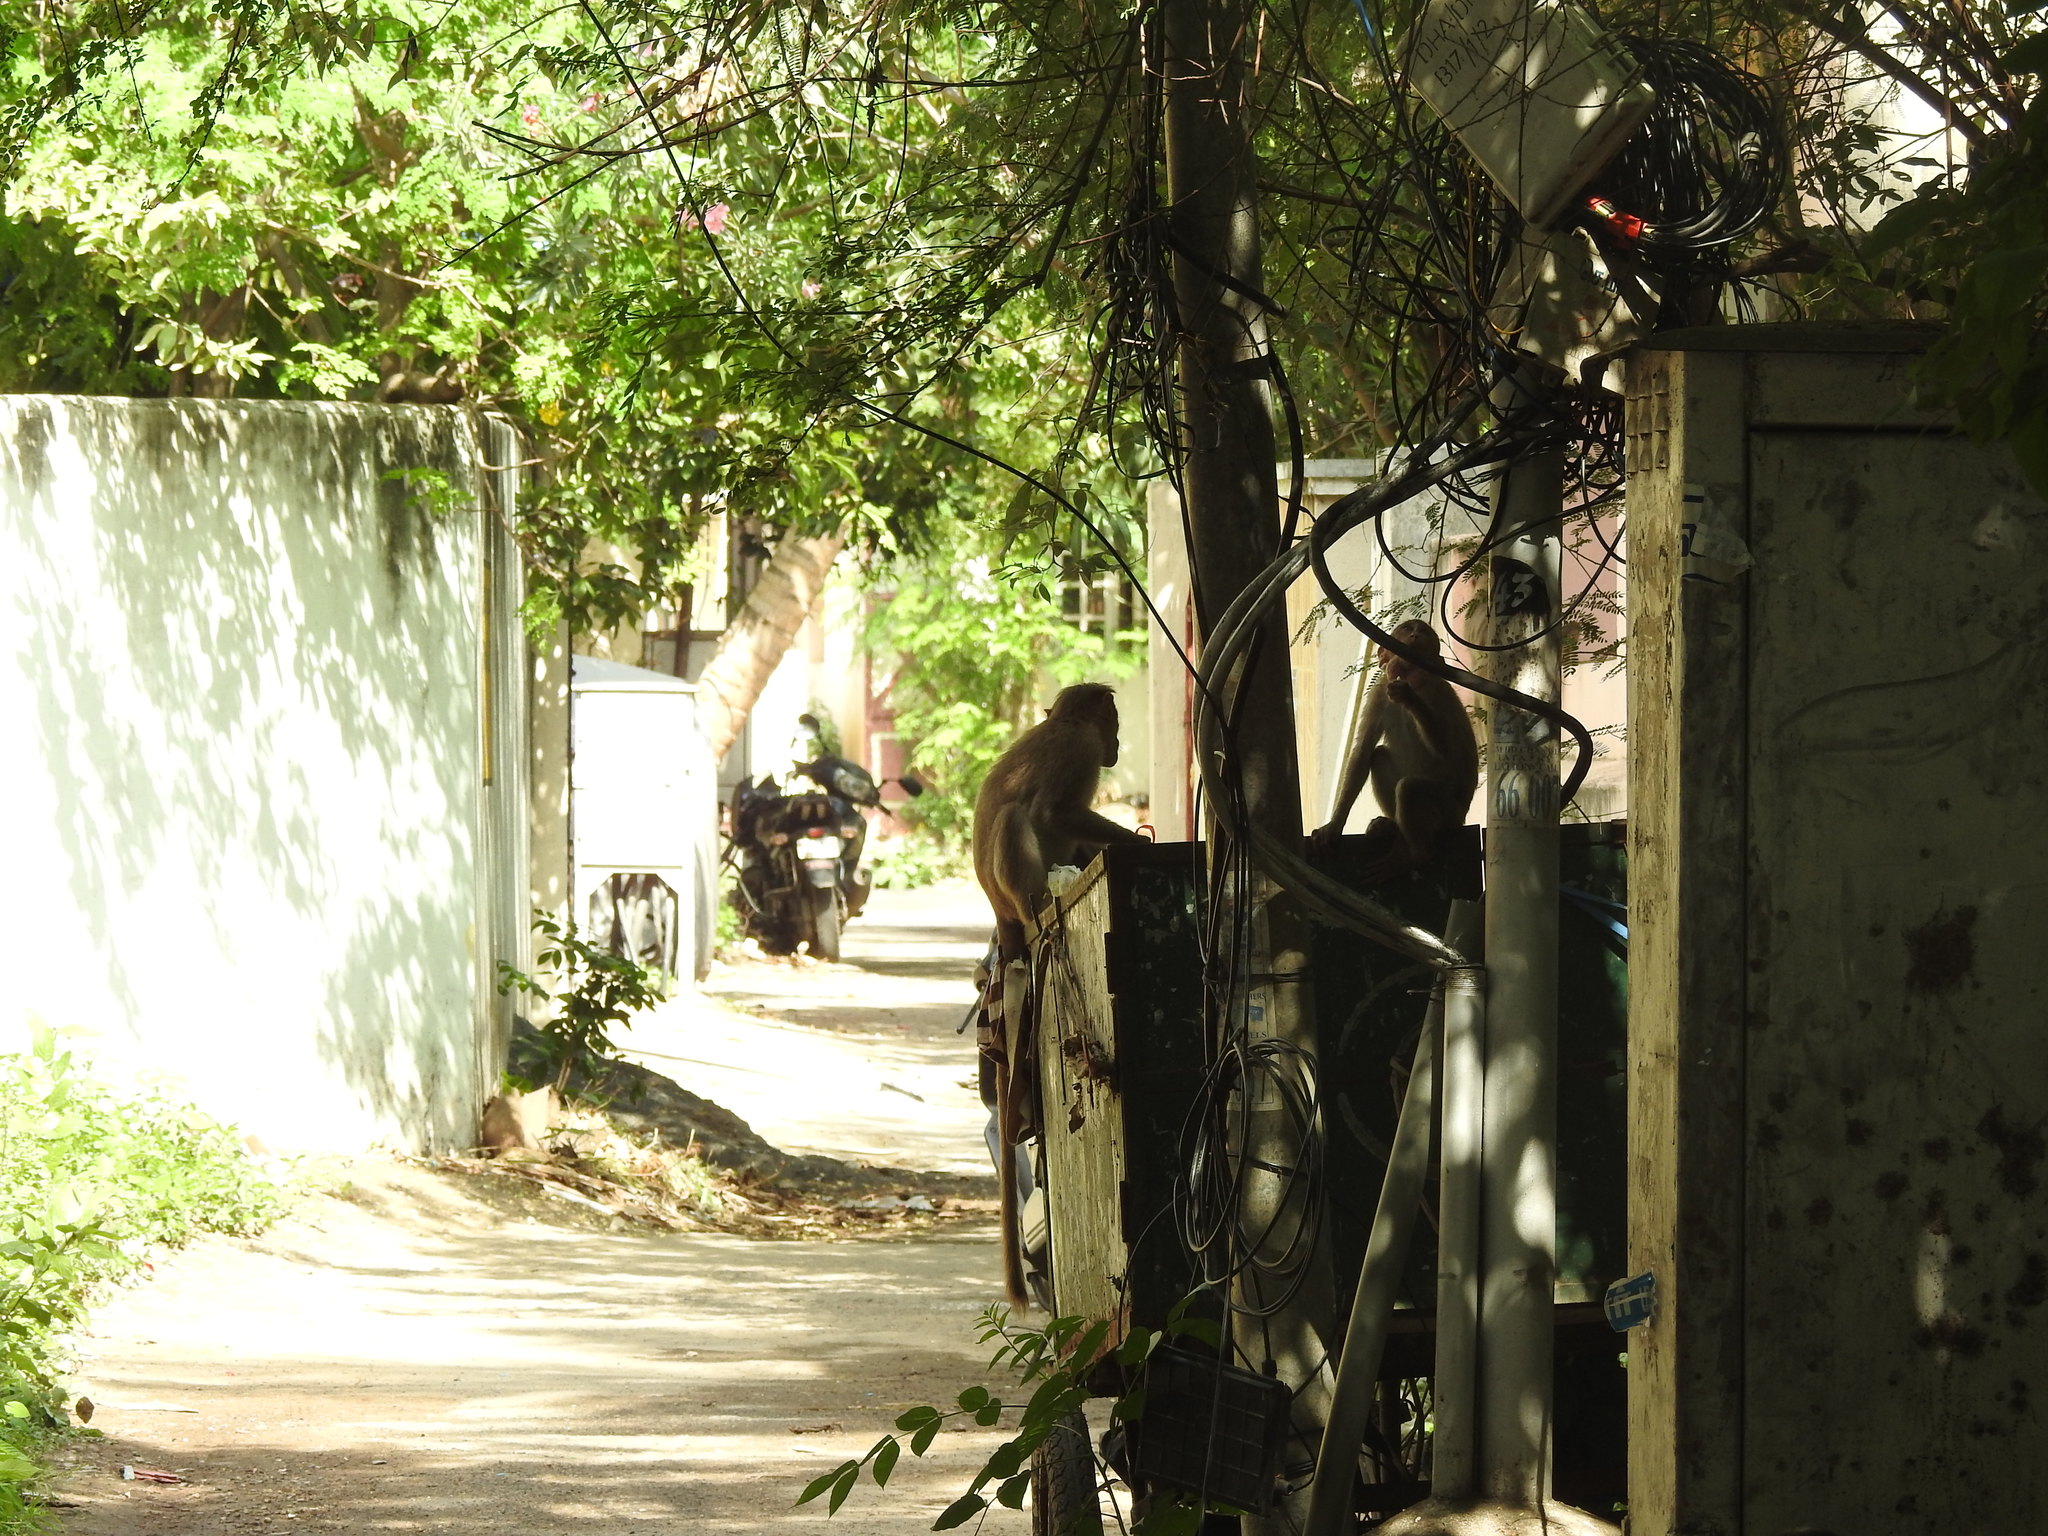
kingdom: Animalia
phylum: Chordata
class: Mammalia
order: Primates
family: Cercopithecidae
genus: Macaca
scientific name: Macaca radiata
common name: Bonnet macaque
